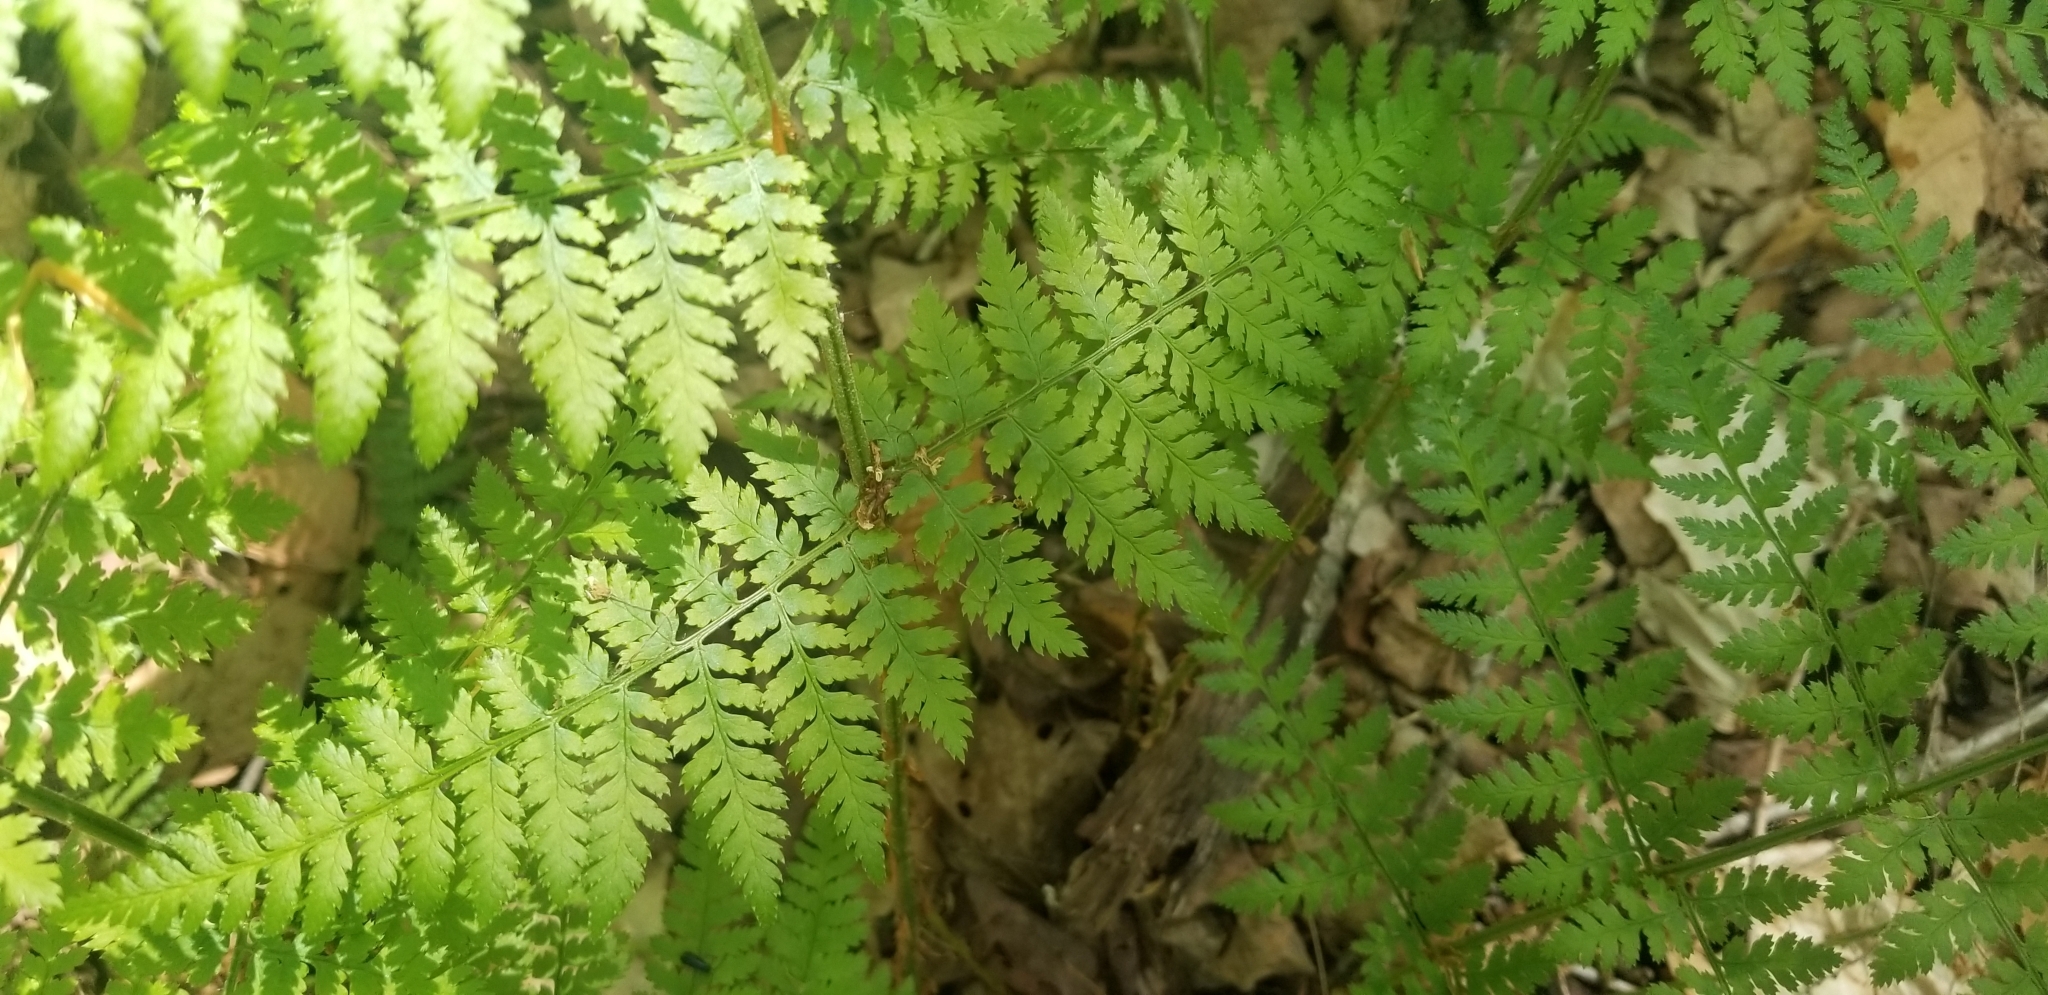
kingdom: Plantae
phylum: Tracheophyta
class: Polypodiopsida
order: Polypodiales
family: Dryopteridaceae
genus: Dryopteris
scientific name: Dryopteris intermedia
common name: Evergreen wood fern
